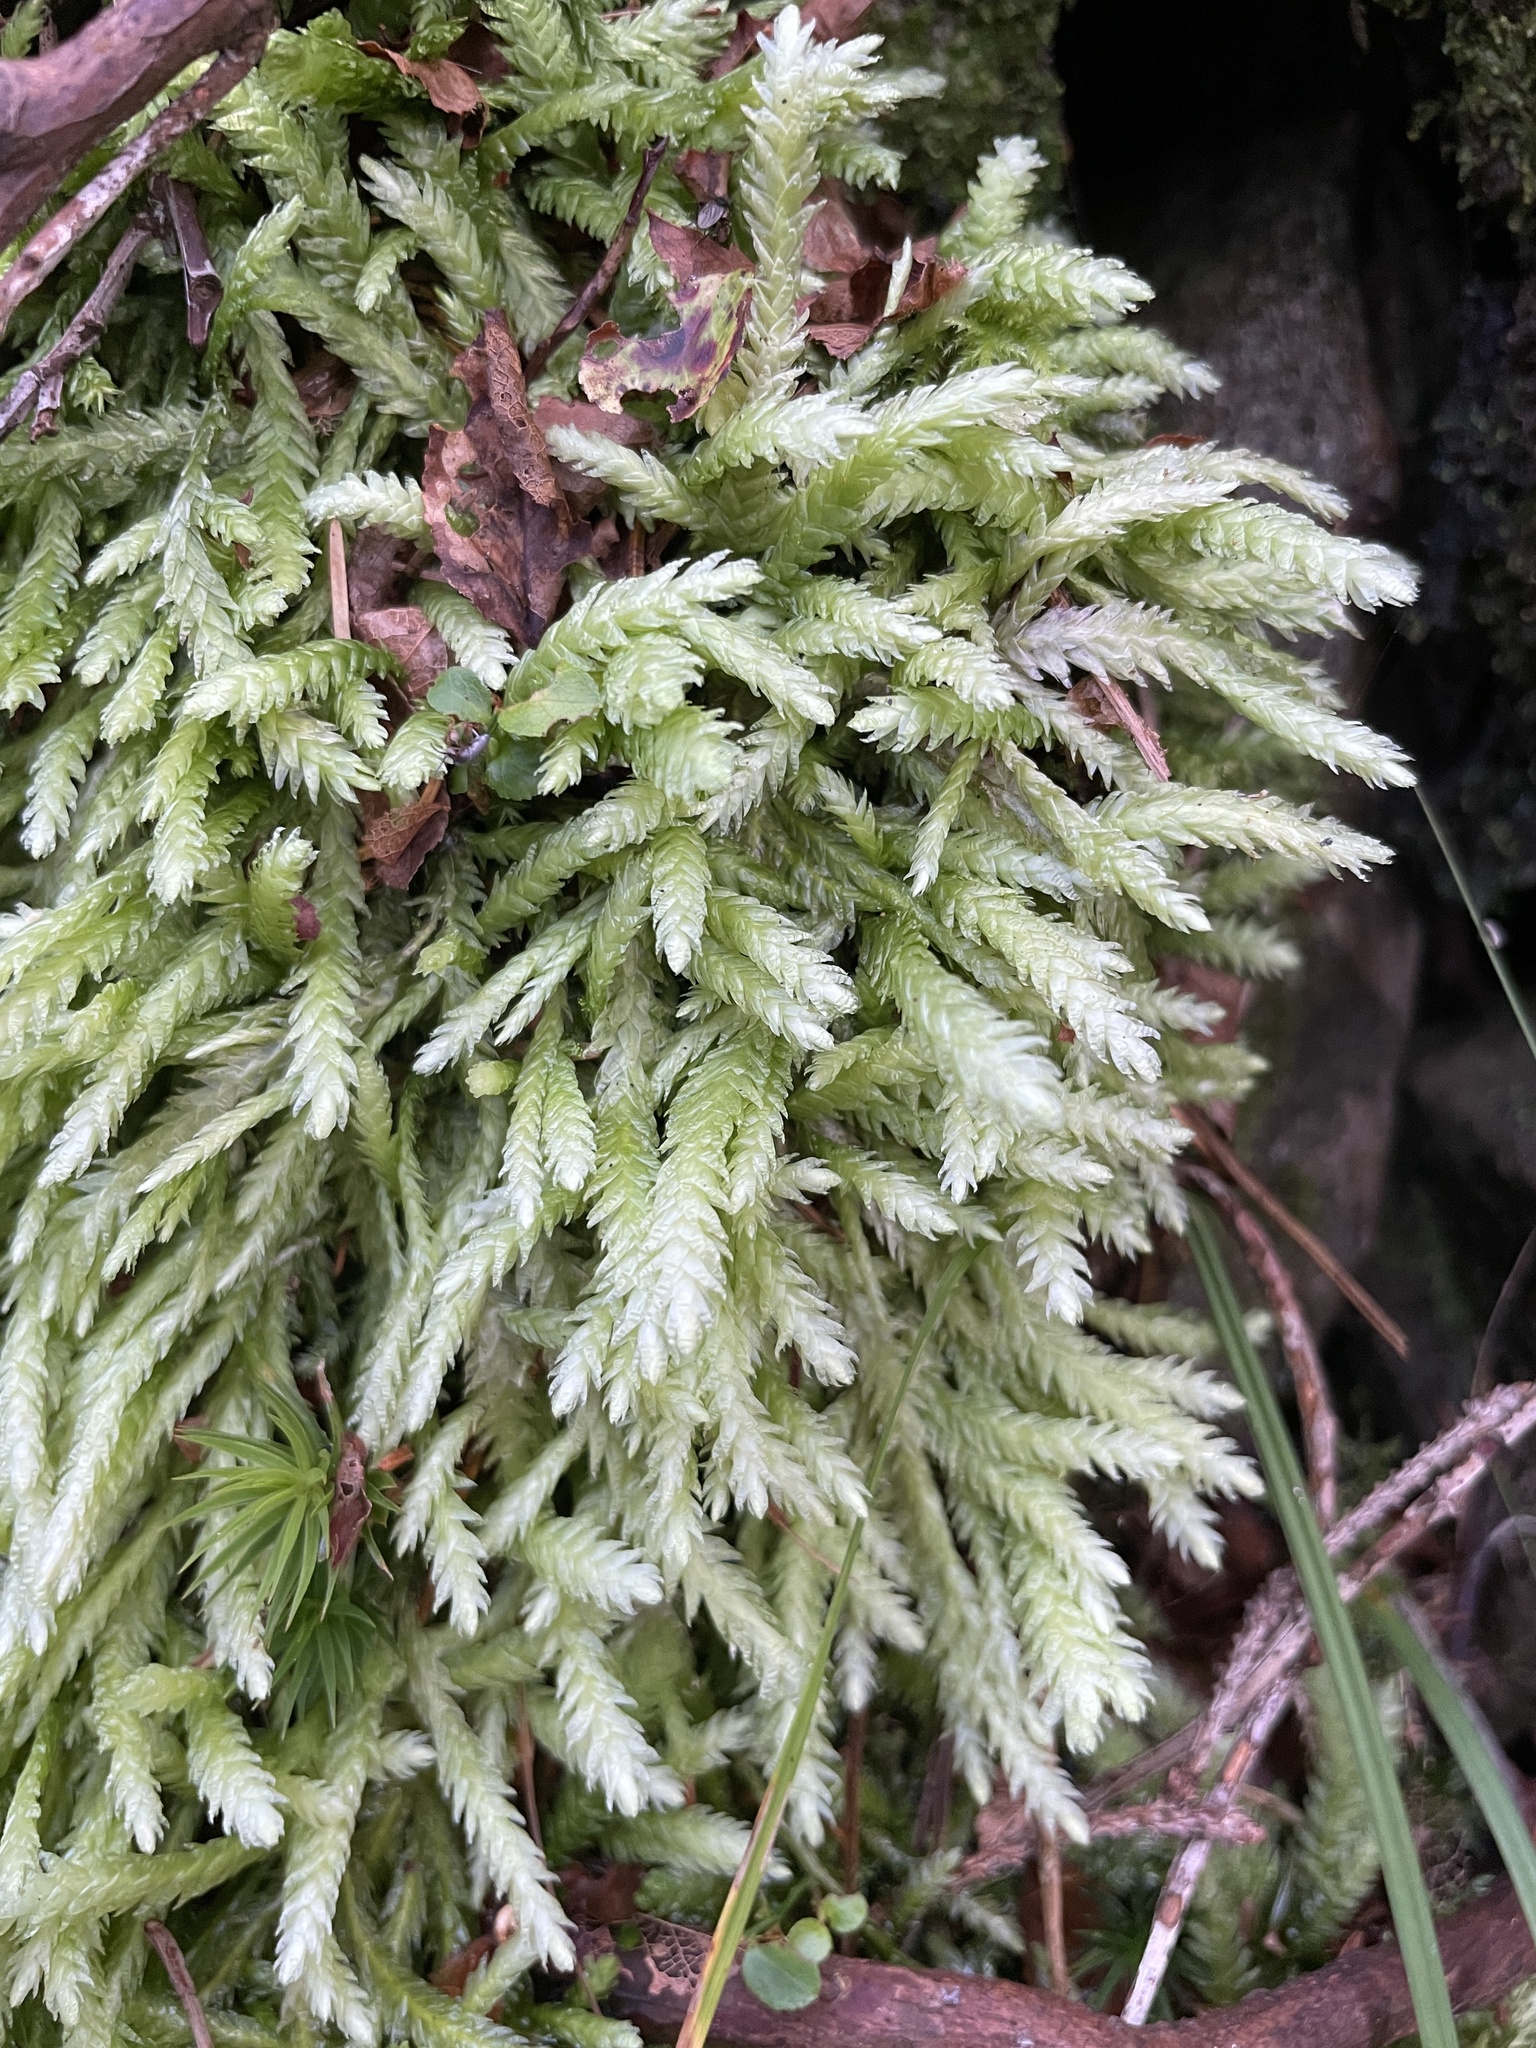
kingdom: Plantae
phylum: Bryophyta
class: Bryopsida
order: Hypnales
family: Plagiotheciaceae
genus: Plagiothecium
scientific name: Plagiothecium undulatum
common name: Waved silk-moss
